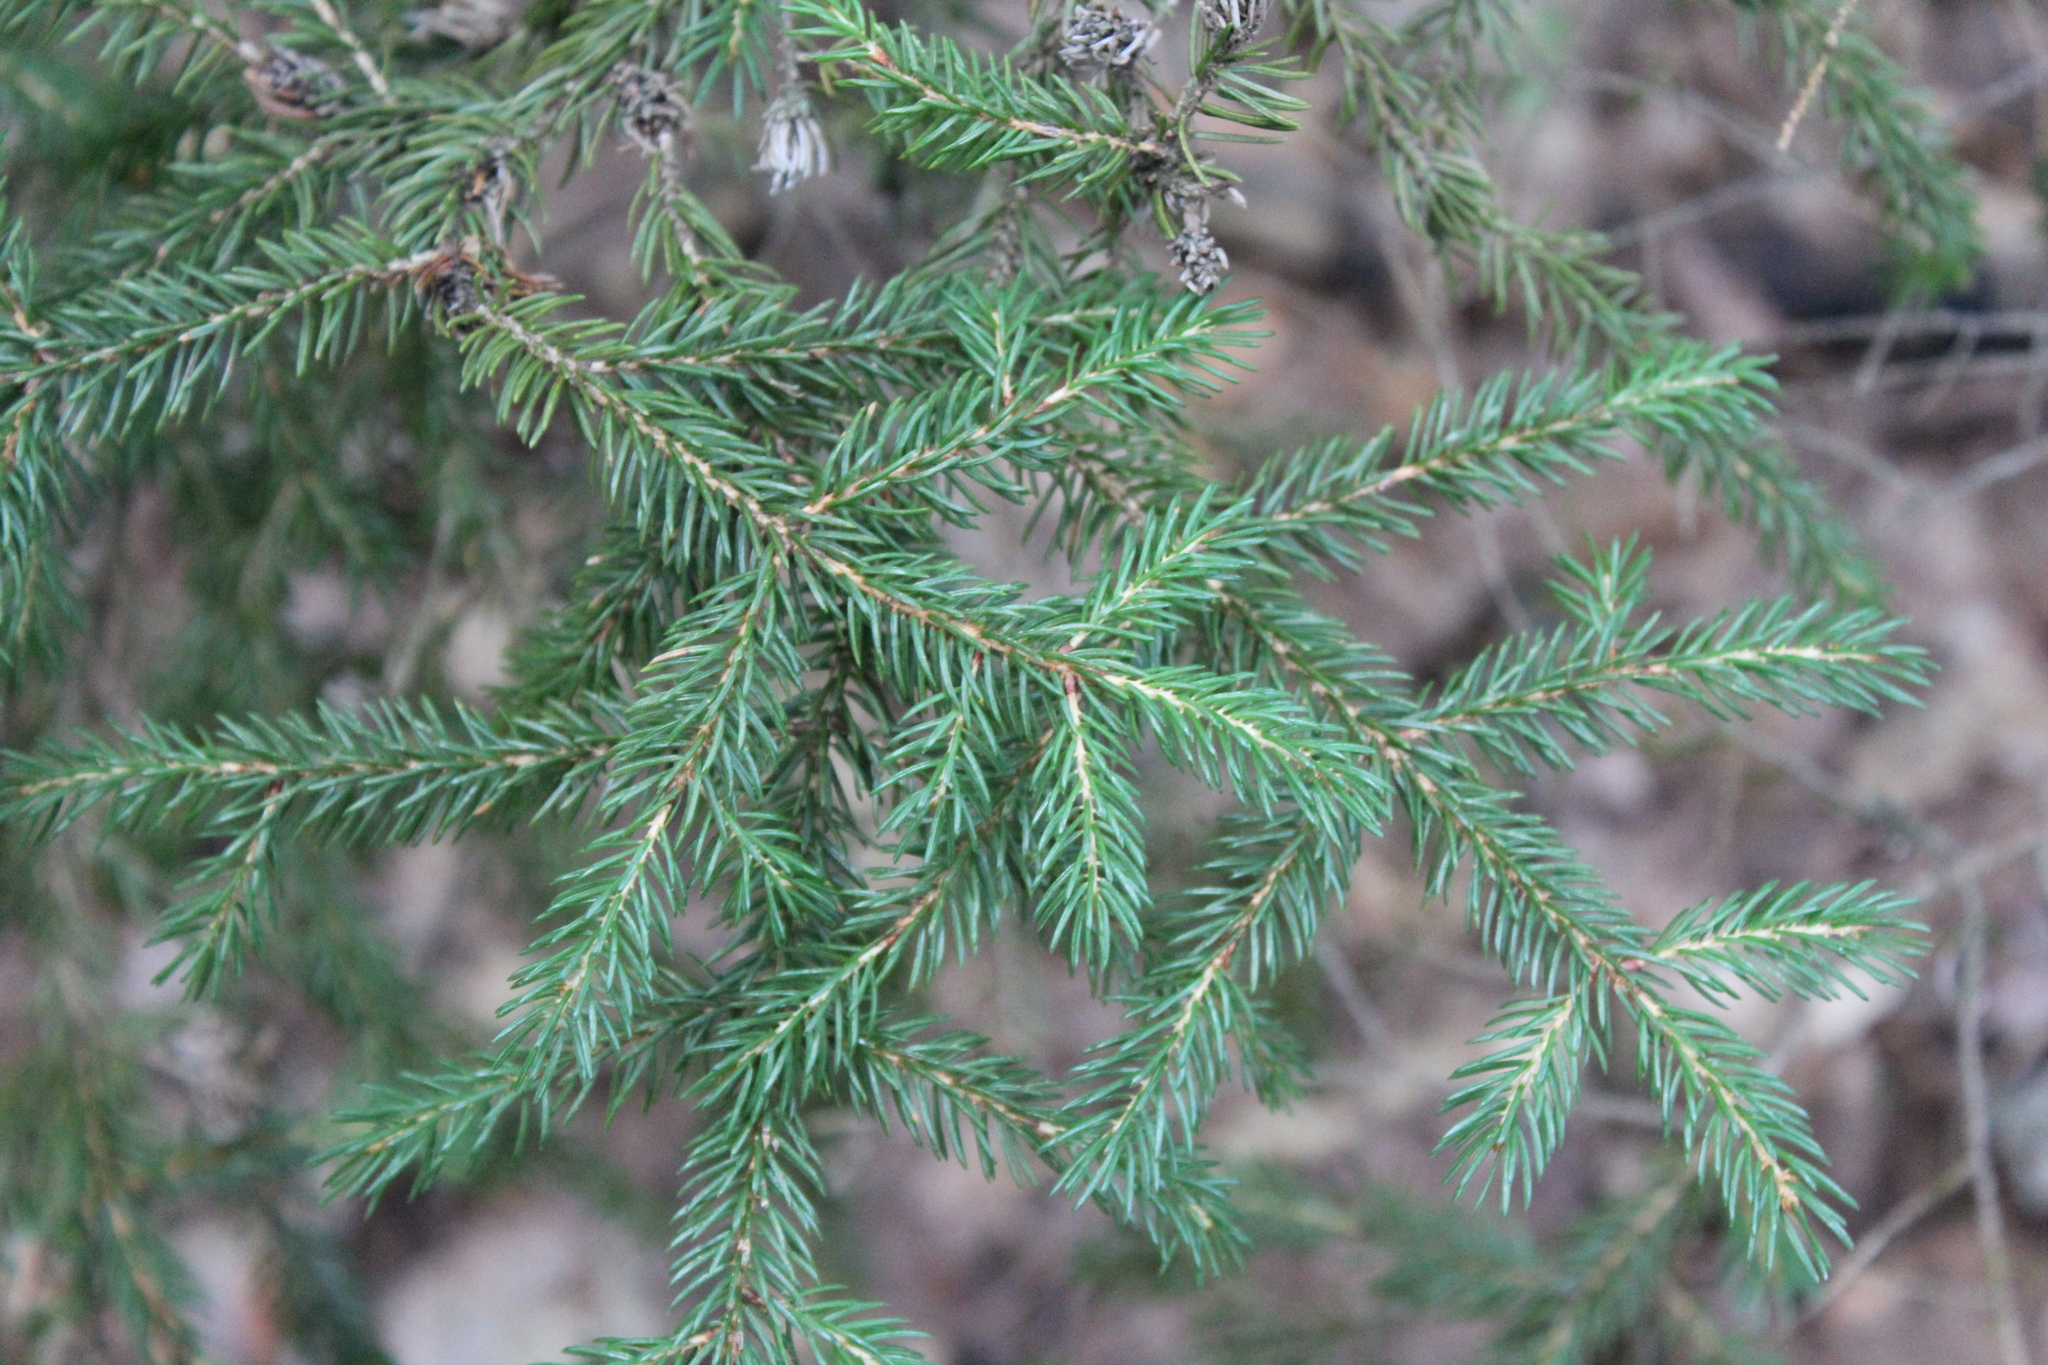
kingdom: Plantae
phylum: Tracheophyta
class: Pinopsida
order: Pinales
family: Pinaceae
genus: Picea
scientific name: Picea rubens
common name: Red spruce
